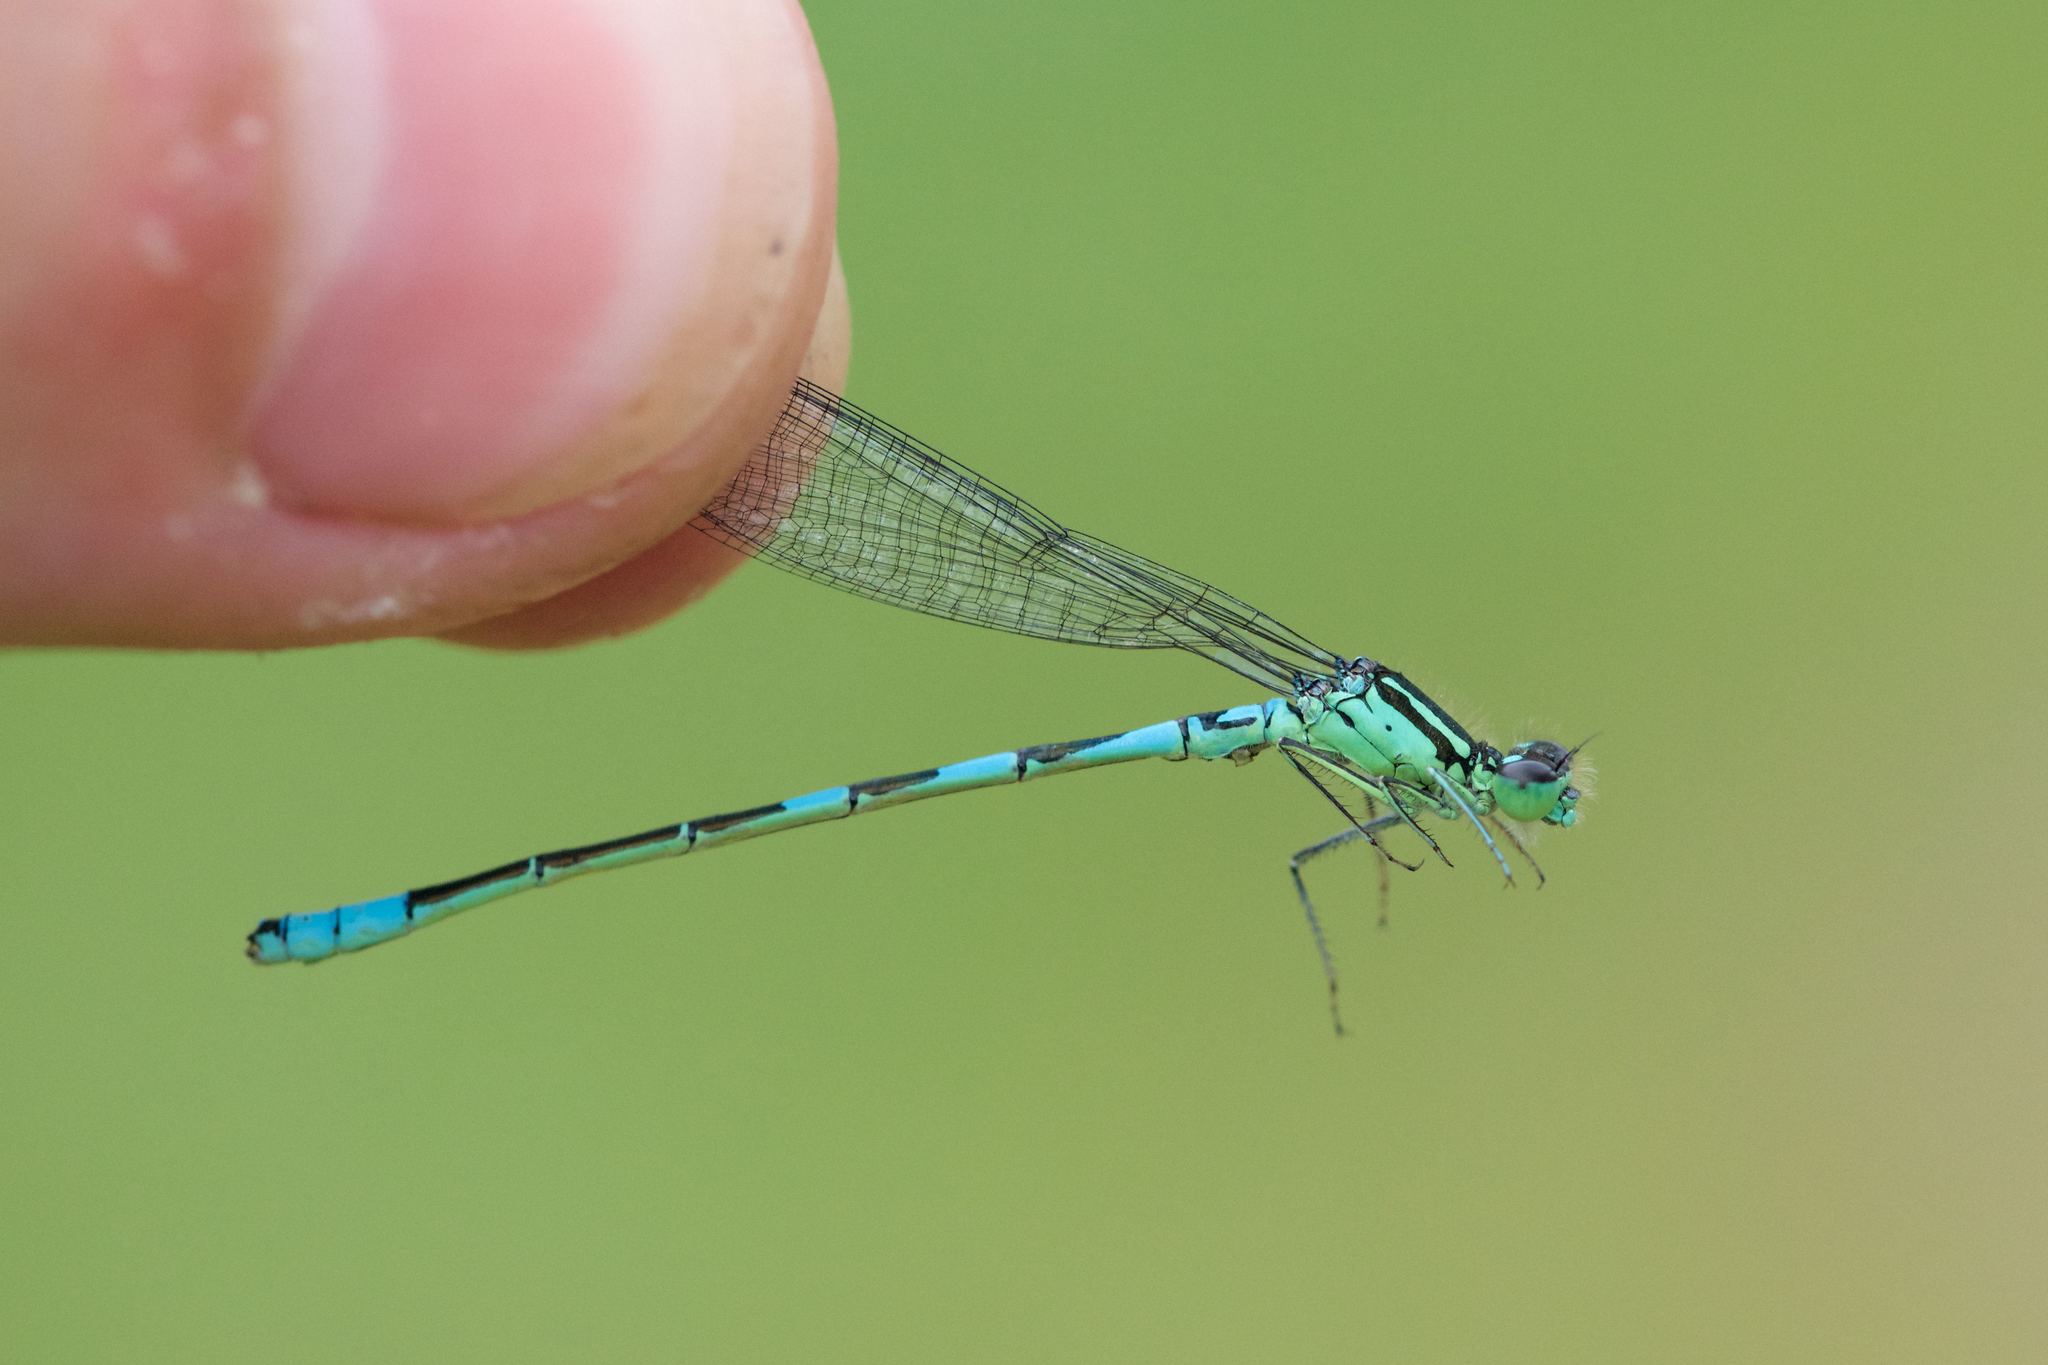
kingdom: Animalia
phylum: Arthropoda
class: Insecta
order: Odonata
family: Coenagrionidae
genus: Coenagrion
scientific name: Coenagrion resolutum
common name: Taiga bluet
